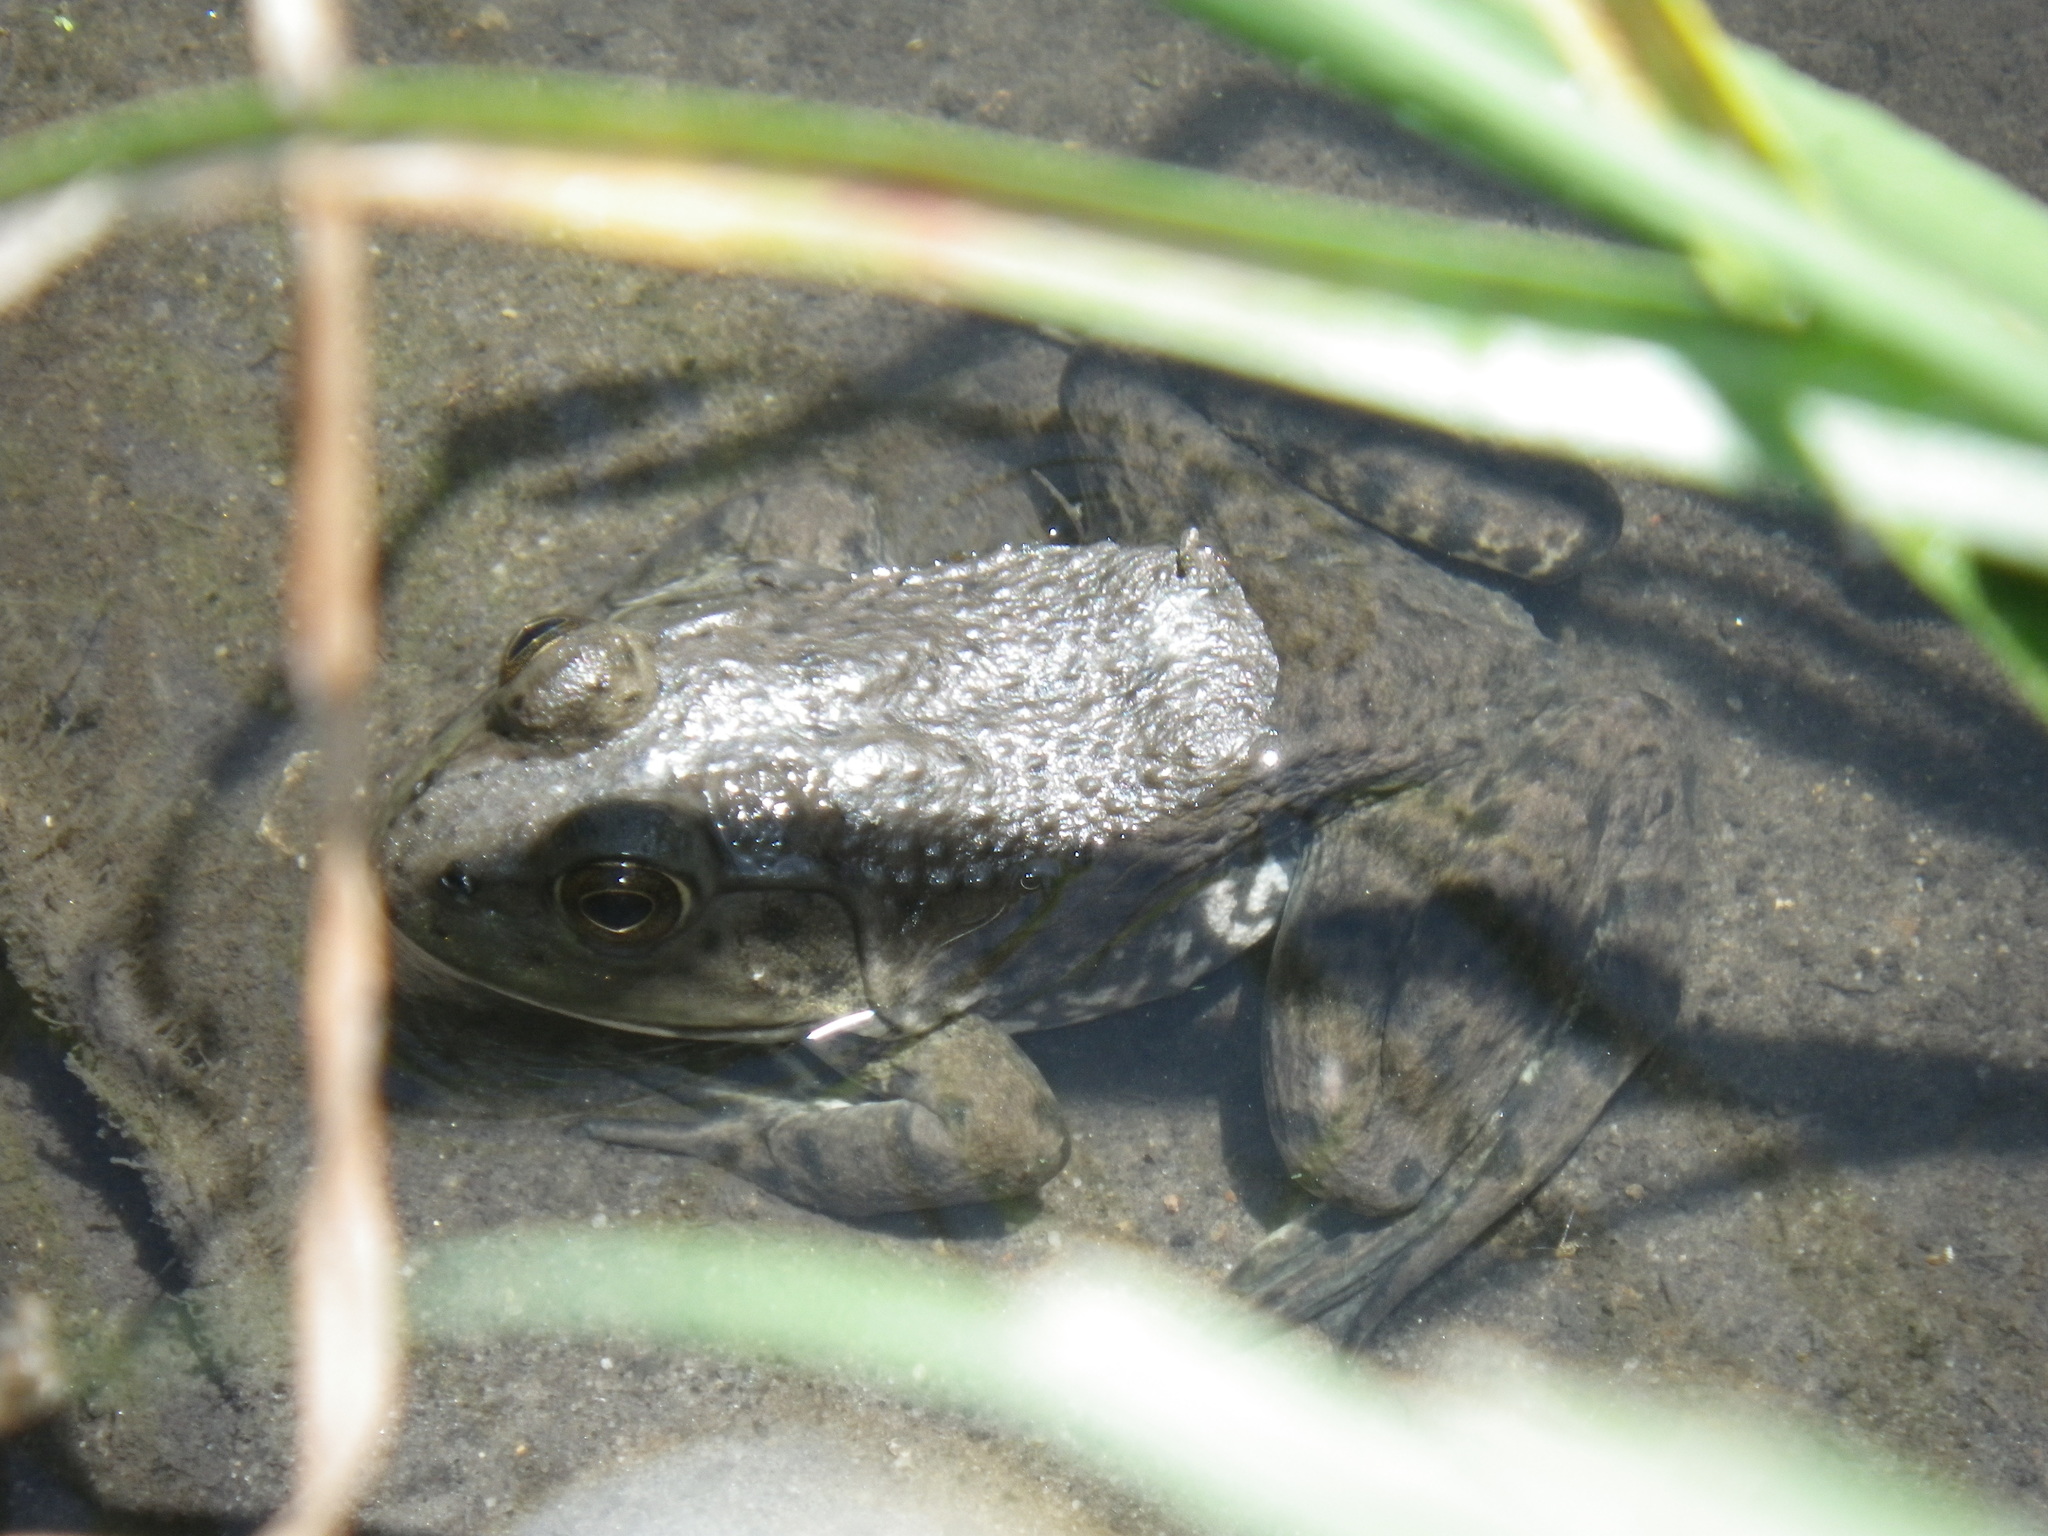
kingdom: Animalia
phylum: Chordata
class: Amphibia
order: Anura
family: Ranidae
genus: Lithobates
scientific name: Lithobates catesbeianus
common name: American bullfrog
